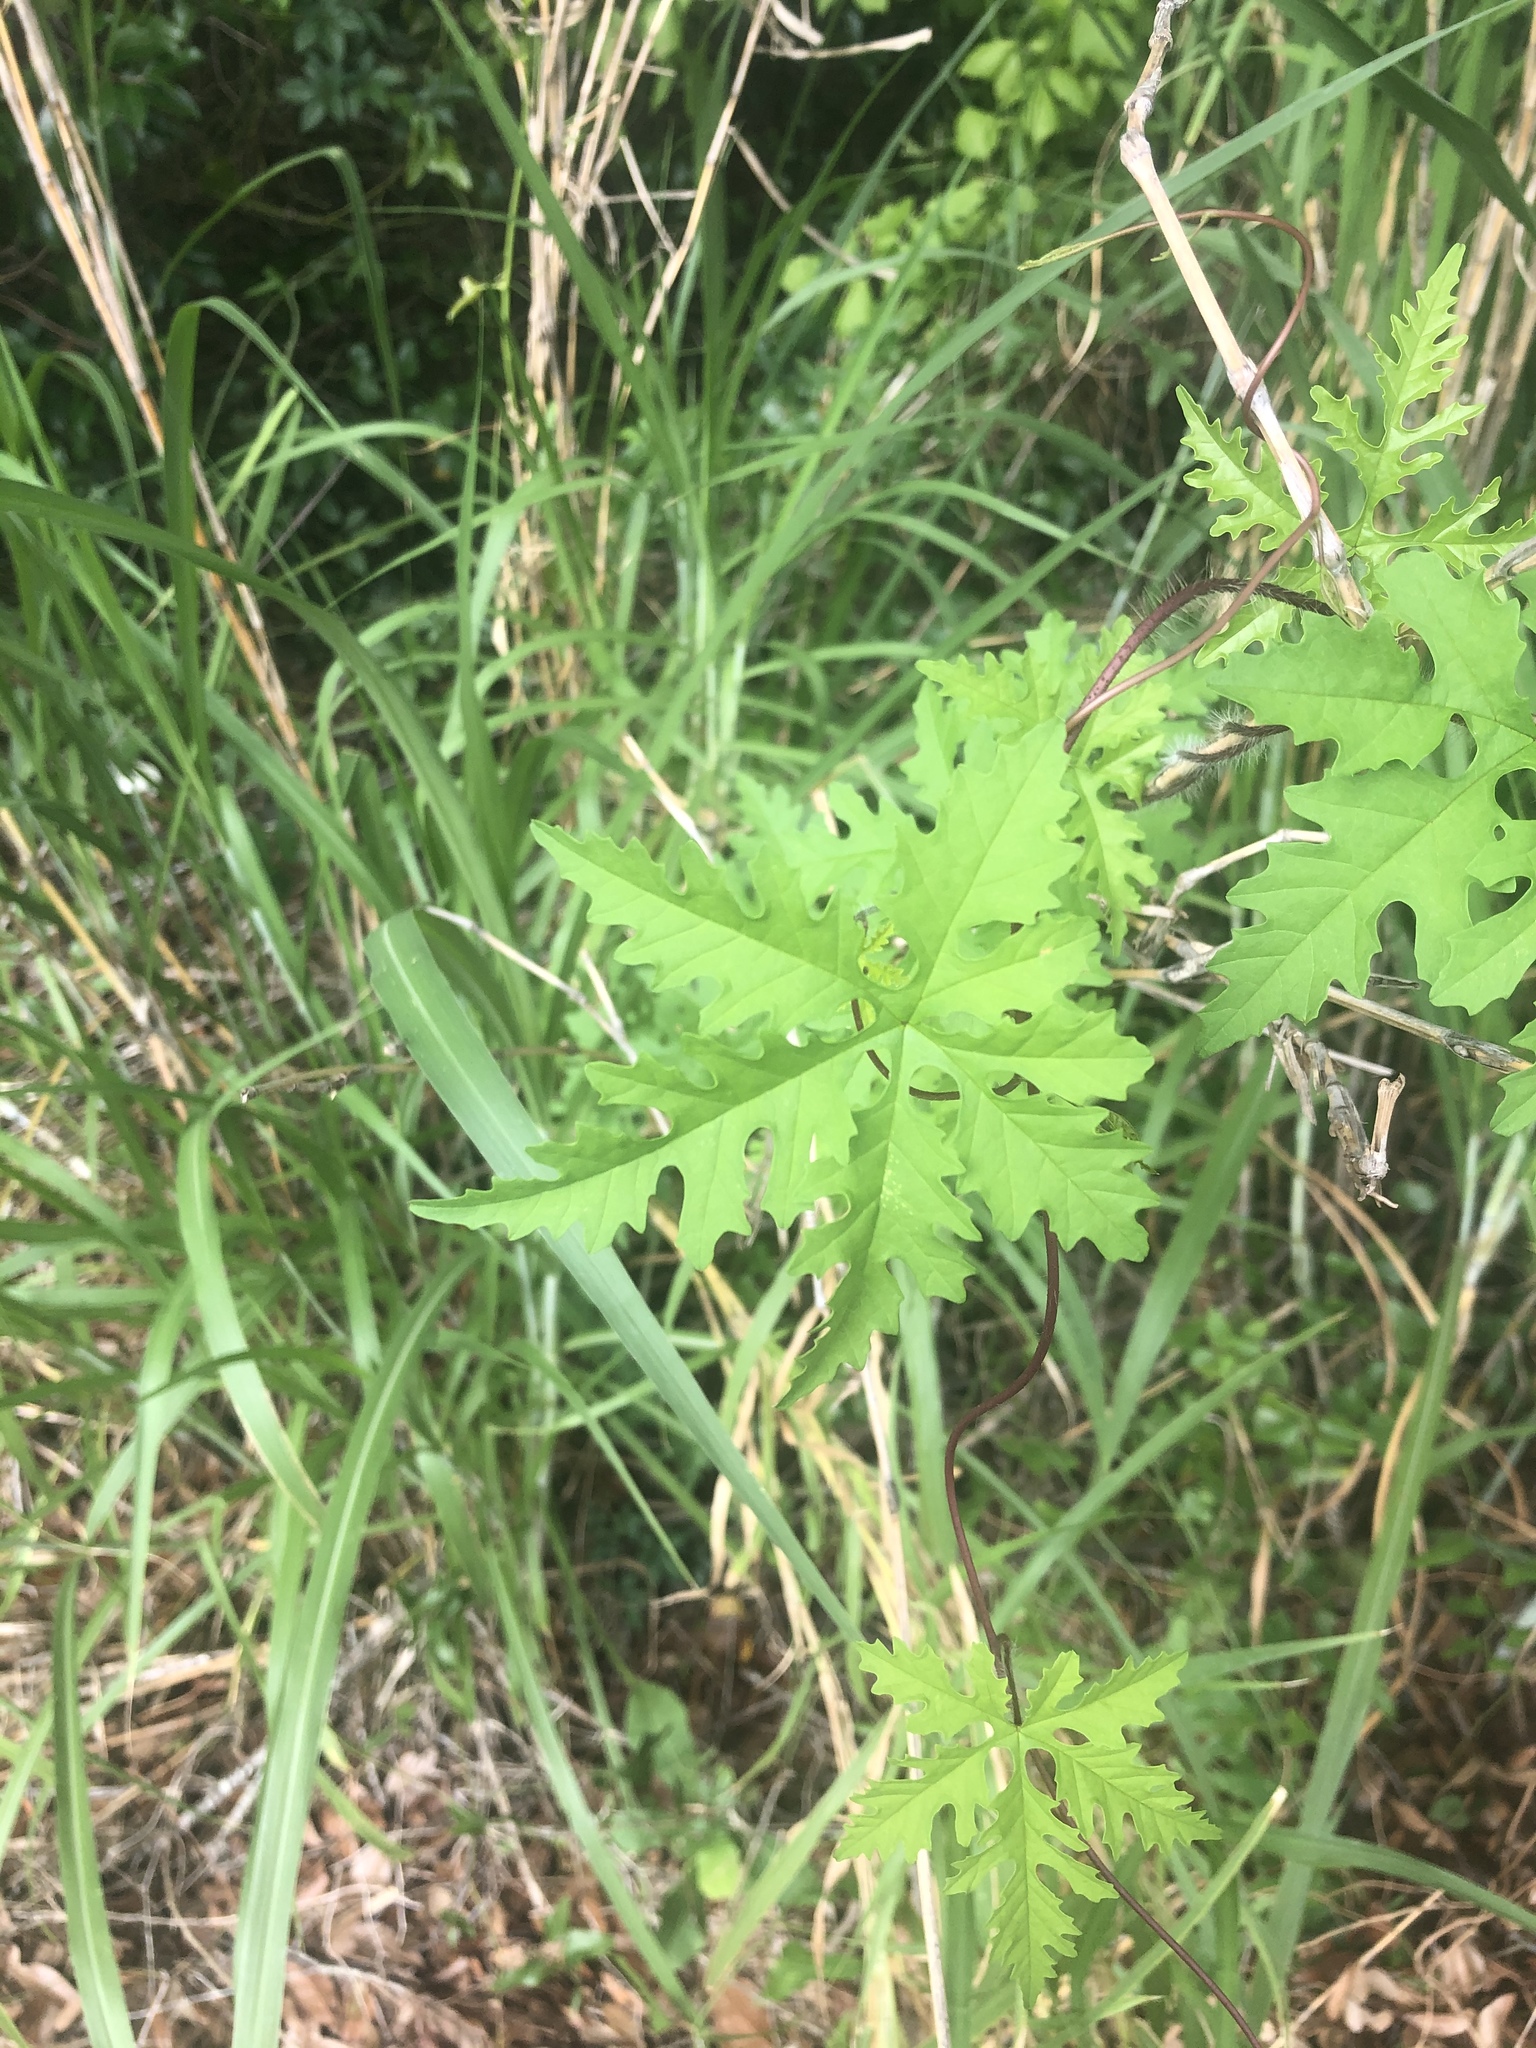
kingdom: Plantae
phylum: Tracheophyta
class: Magnoliopsida
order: Solanales
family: Convolvulaceae
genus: Distimake
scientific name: Distimake dissectus
